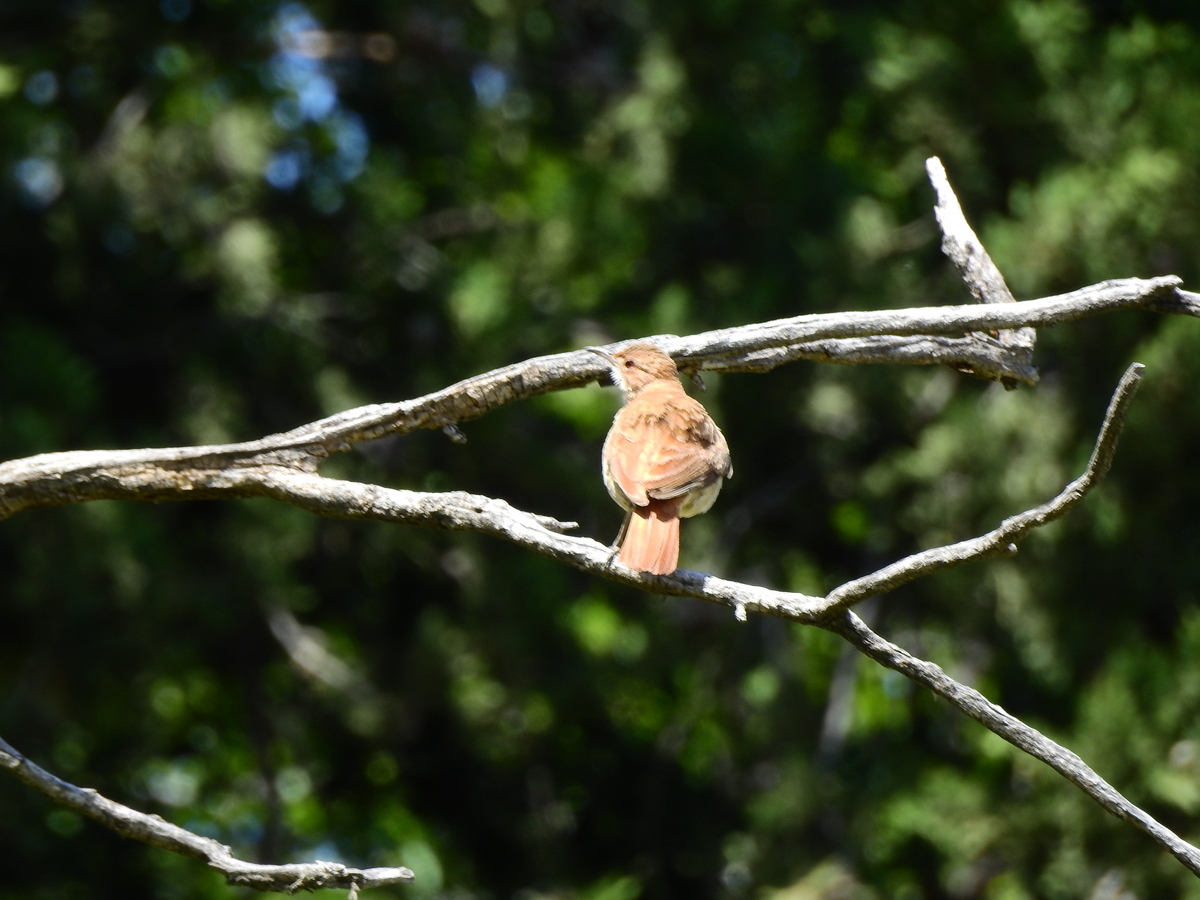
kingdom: Animalia
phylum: Chordata
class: Aves
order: Passeriformes
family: Furnariidae
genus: Furnarius
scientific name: Furnarius rufus
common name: Rufous hornero
